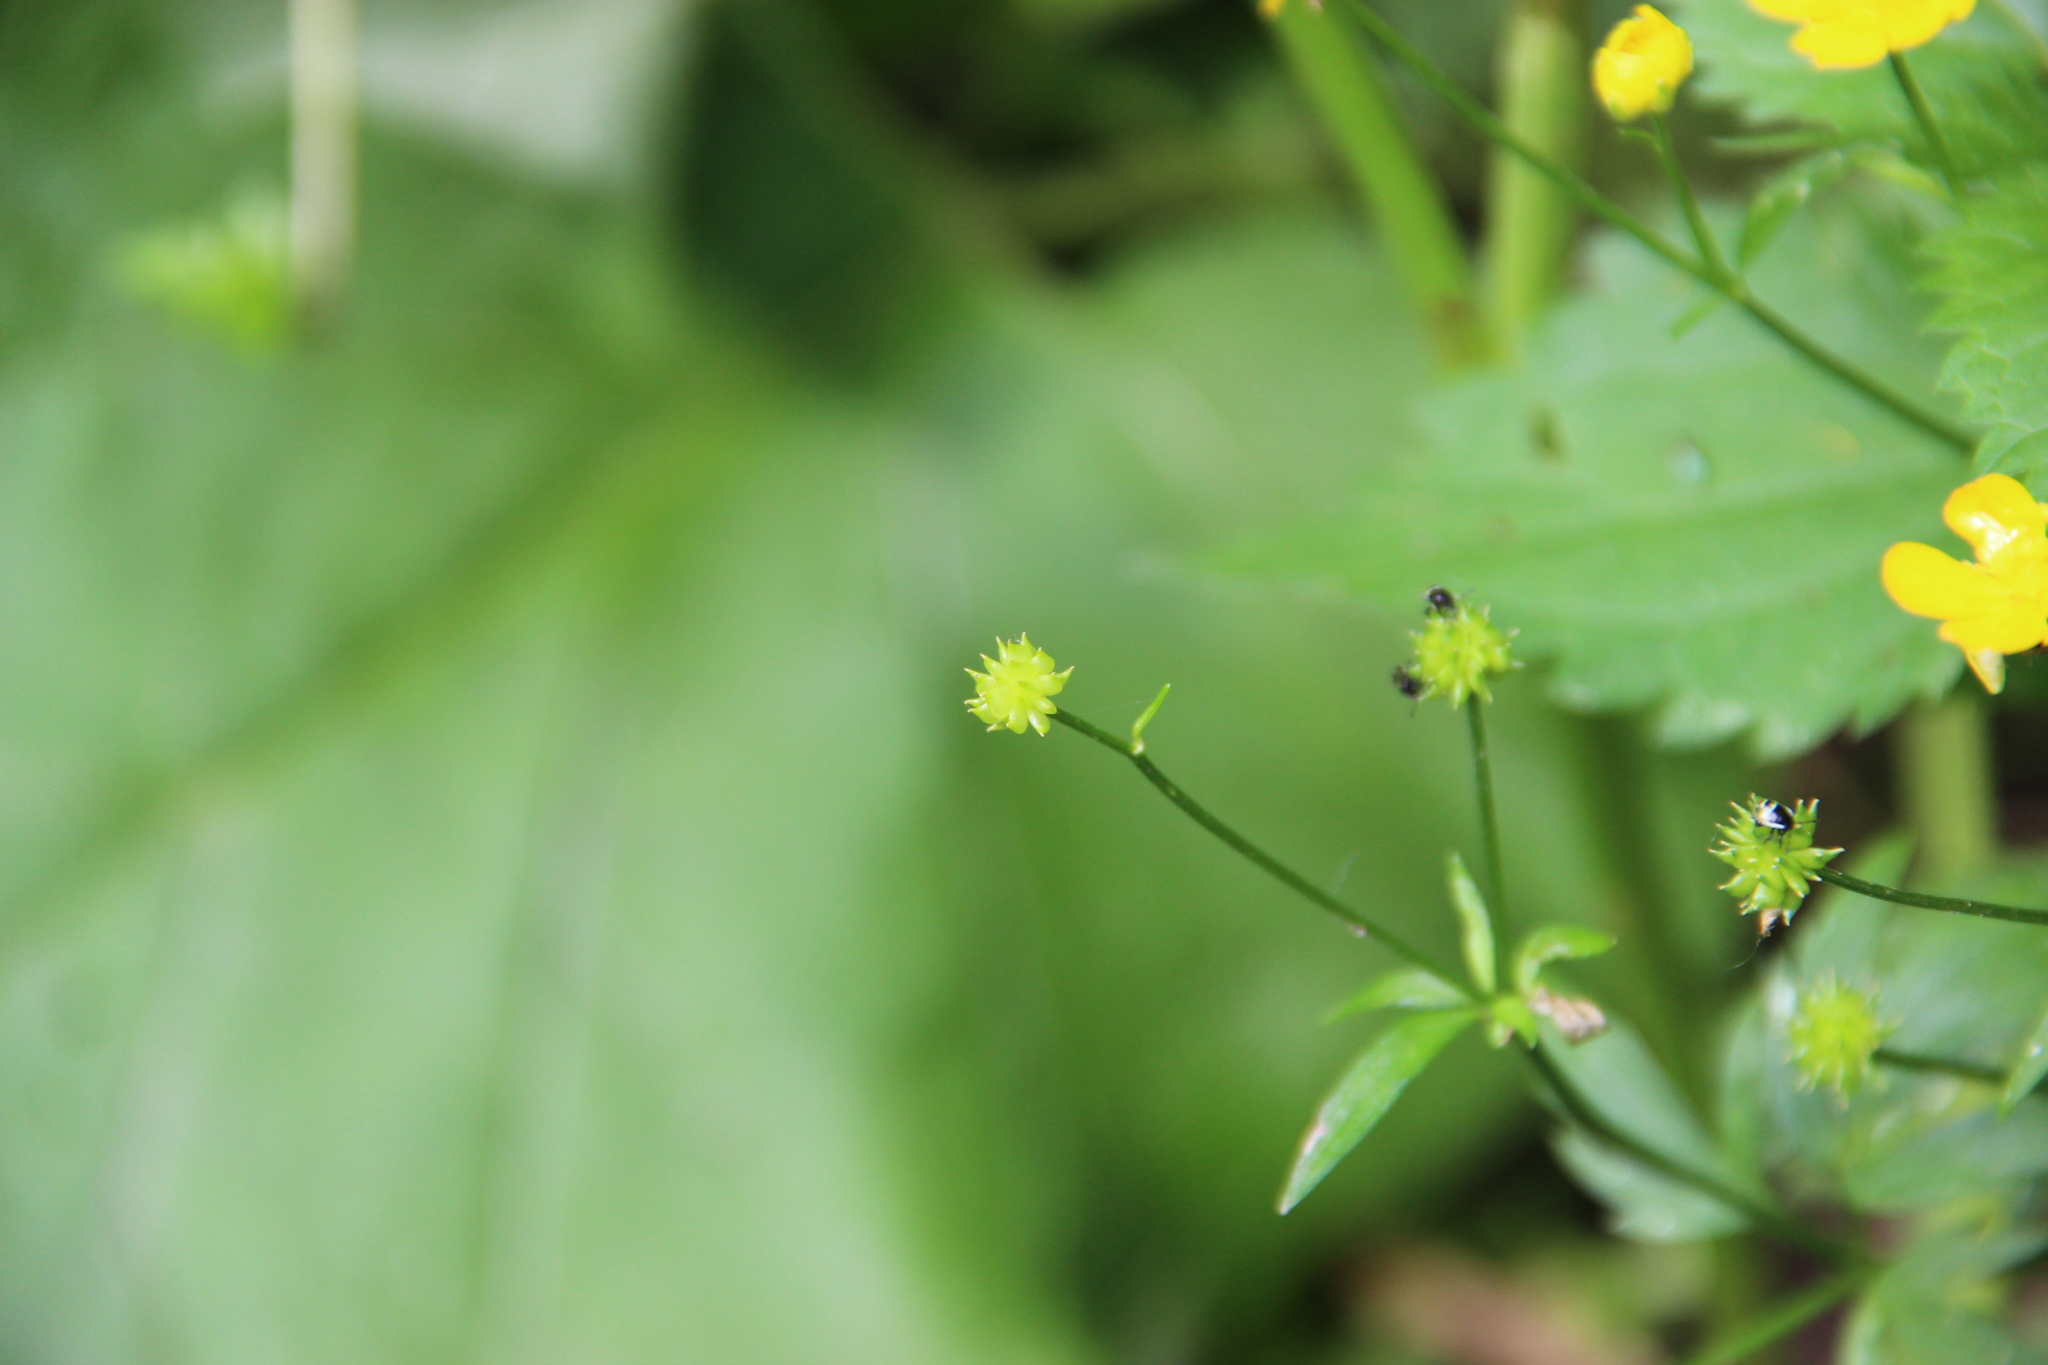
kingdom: Plantae
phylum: Tracheophyta
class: Magnoliopsida
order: Ranunculales
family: Ranunculaceae
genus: Ranunculus
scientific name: Ranunculus repens
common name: Creeping buttercup
